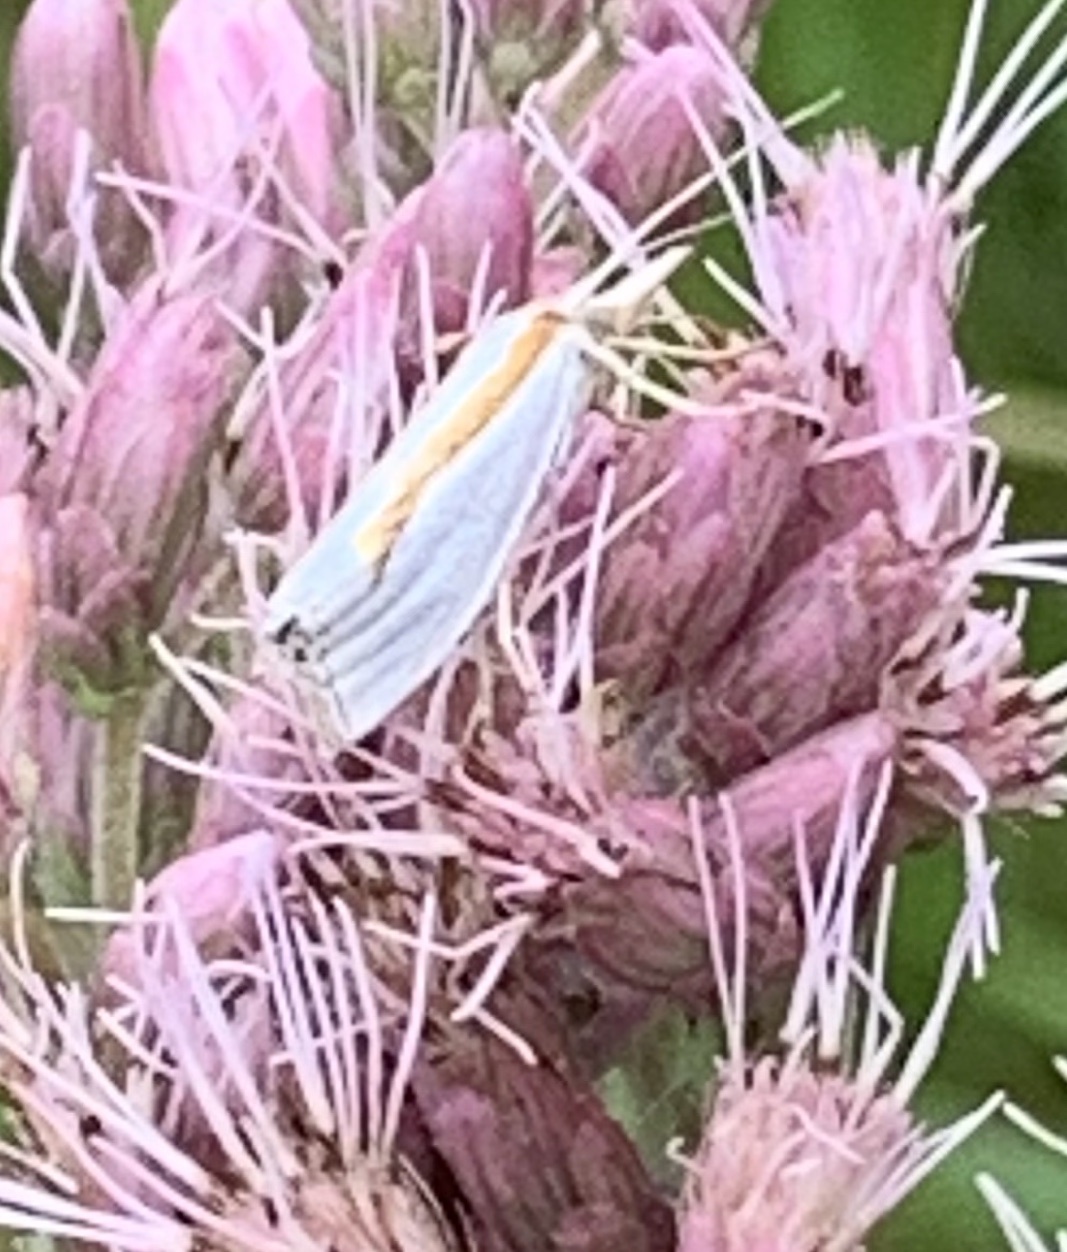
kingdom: Animalia
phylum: Arthropoda
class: Insecta
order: Lepidoptera
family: Crambidae
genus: Crambus
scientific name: Crambus girardellus
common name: Girard's grass-veneer
